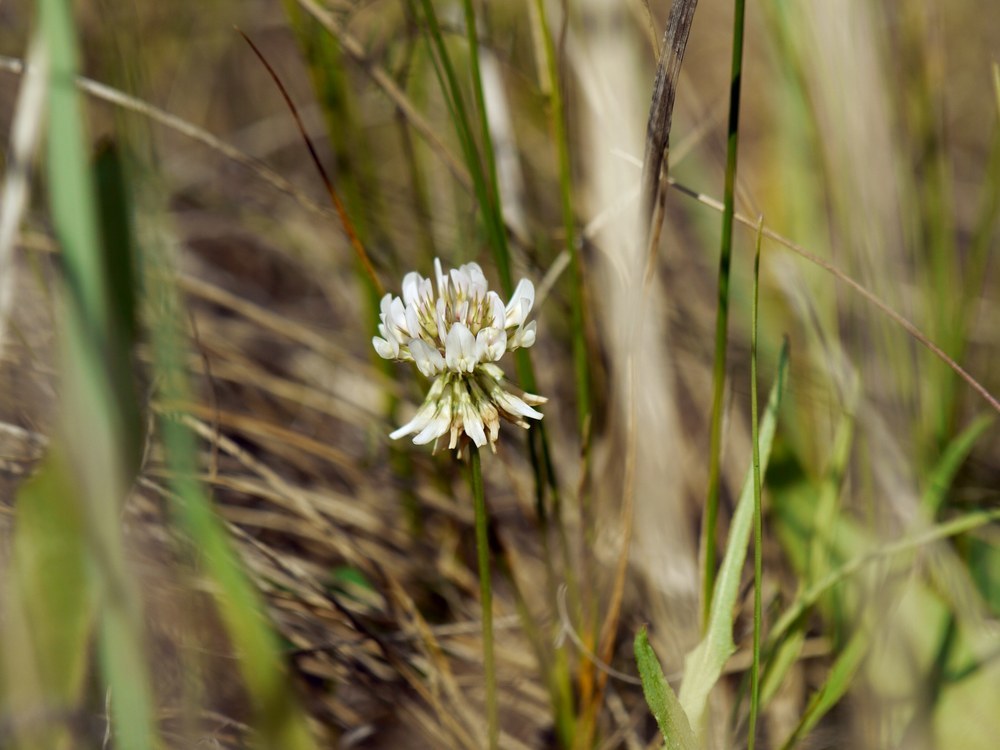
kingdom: Plantae
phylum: Tracheophyta
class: Magnoliopsida
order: Fabales
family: Fabaceae
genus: Trifolium
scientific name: Trifolium repens
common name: White clover
